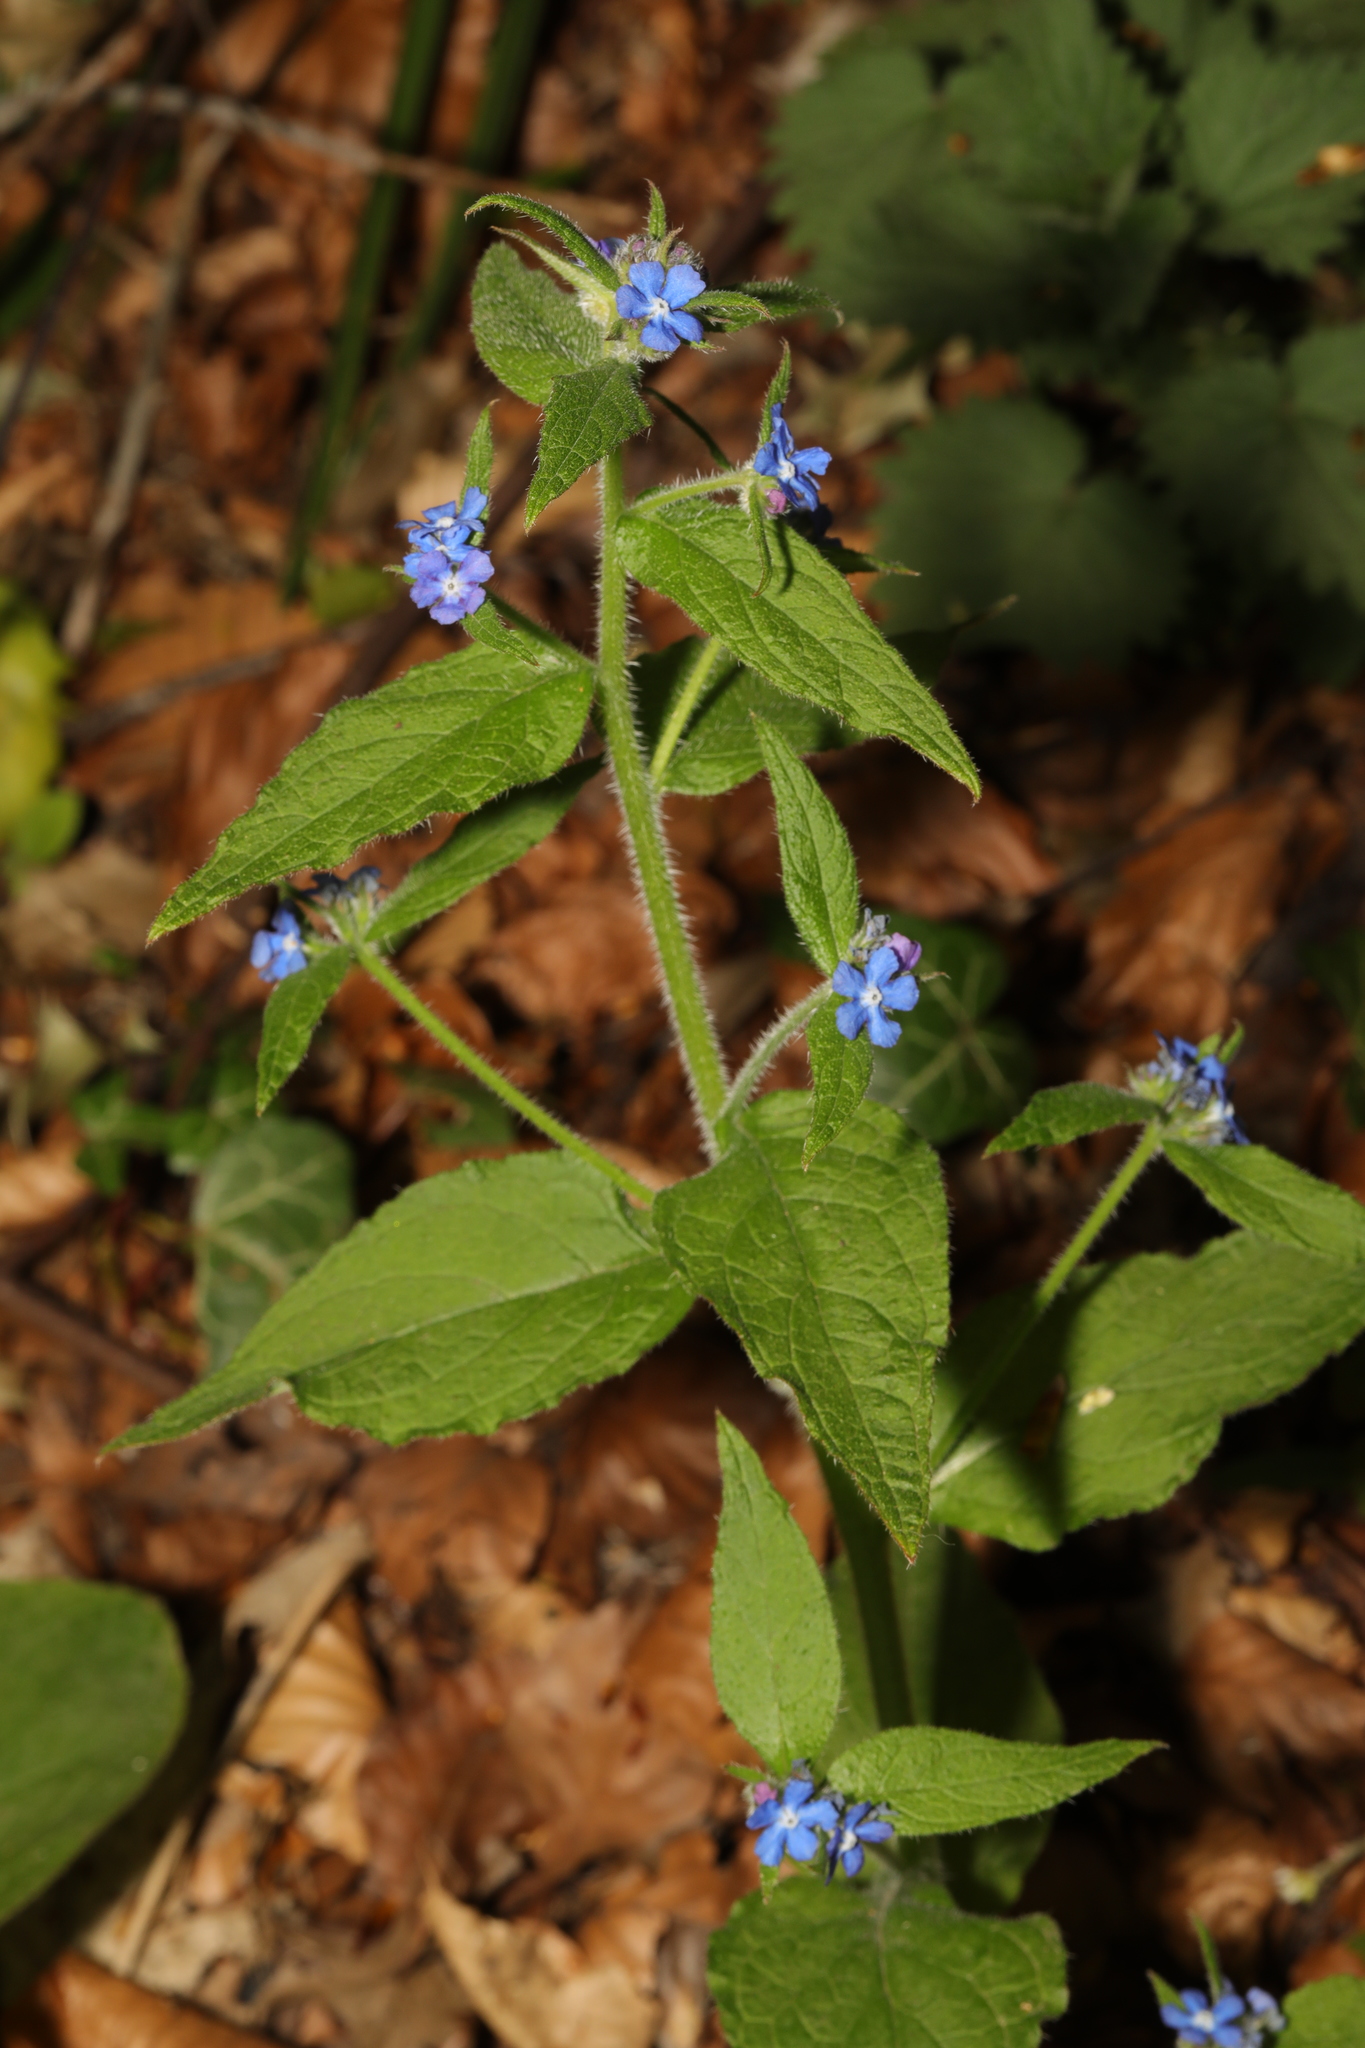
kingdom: Plantae
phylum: Tracheophyta
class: Magnoliopsida
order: Boraginales
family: Boraginaceae
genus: Pentaglottis
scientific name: Pentaglottis sempervirens
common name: Green alkanet
